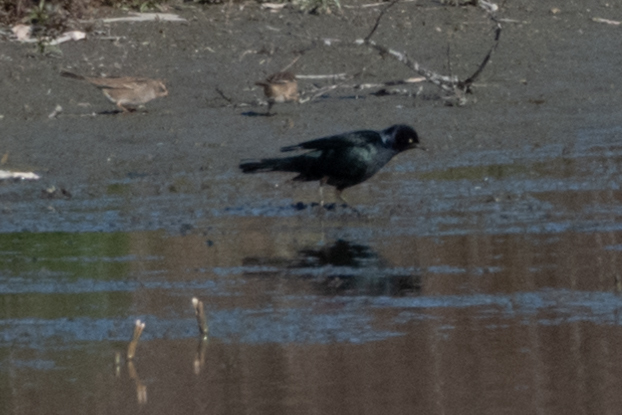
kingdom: Animalia
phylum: Chordata
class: Aves
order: Passeriformes
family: Icteridae
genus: Euphagus
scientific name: Euphagus cyanocephalus
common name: Brewer's blackbird
